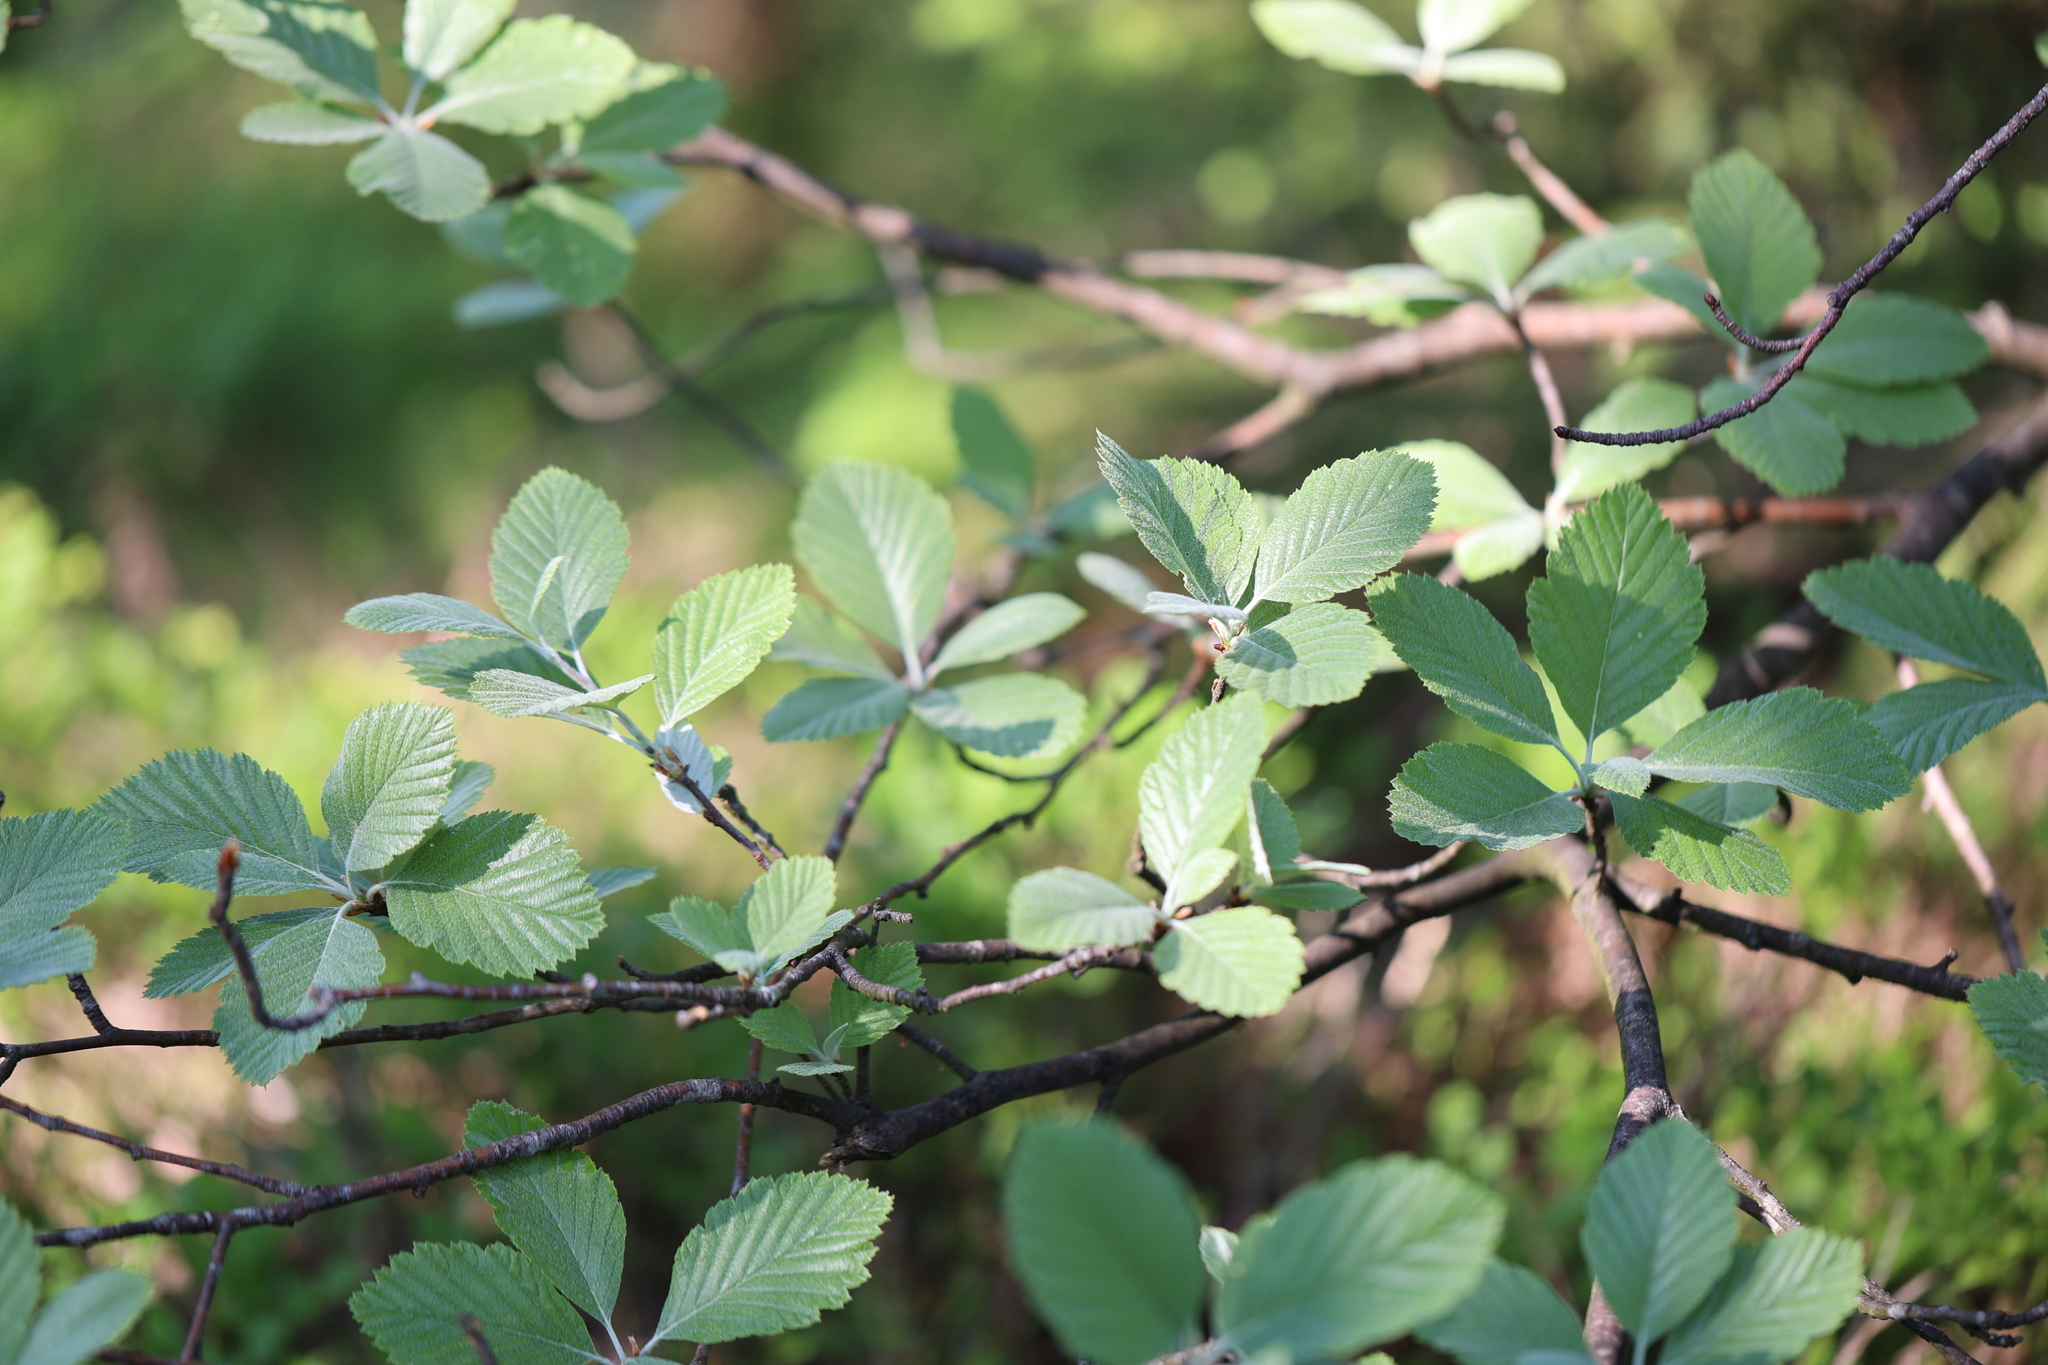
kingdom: Plantae
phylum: Tracheophyta
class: Magnoliopsida
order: Rosales
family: Rosaceae
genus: Aria
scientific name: Aria edulis
